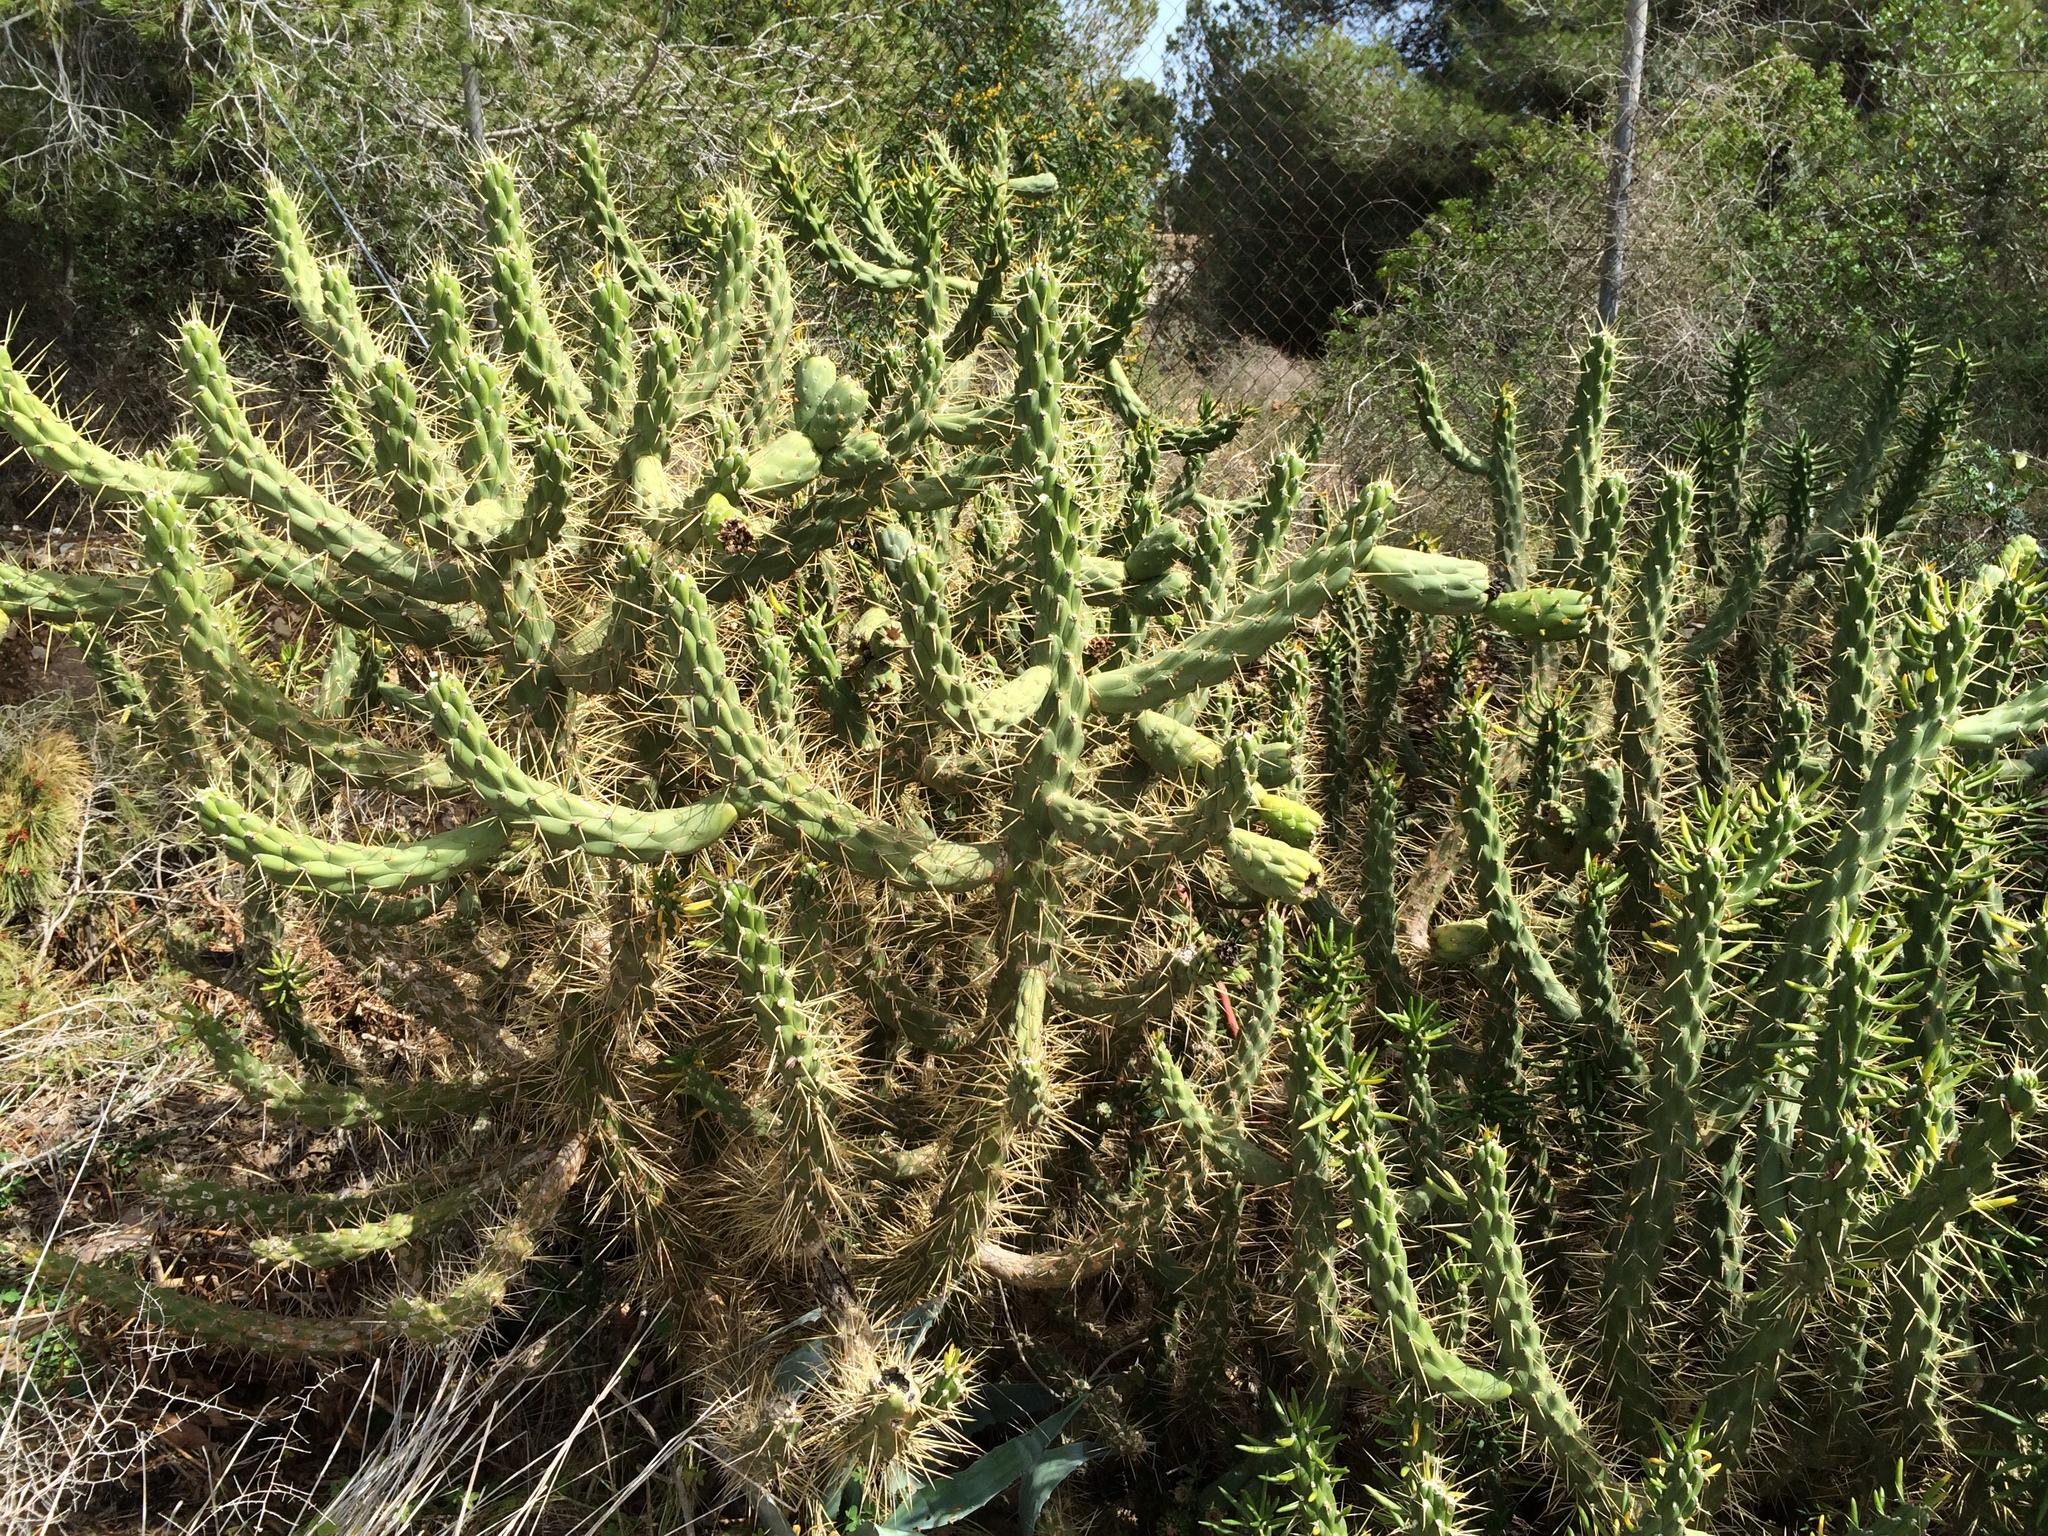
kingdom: Plantae
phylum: Tracheophyta
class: Magnoliopsida
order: Caryophyllales
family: Cactaceae
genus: Austrocylindropuntia
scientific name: Austrocylindropuntia subulata
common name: Eve's needle cactus
